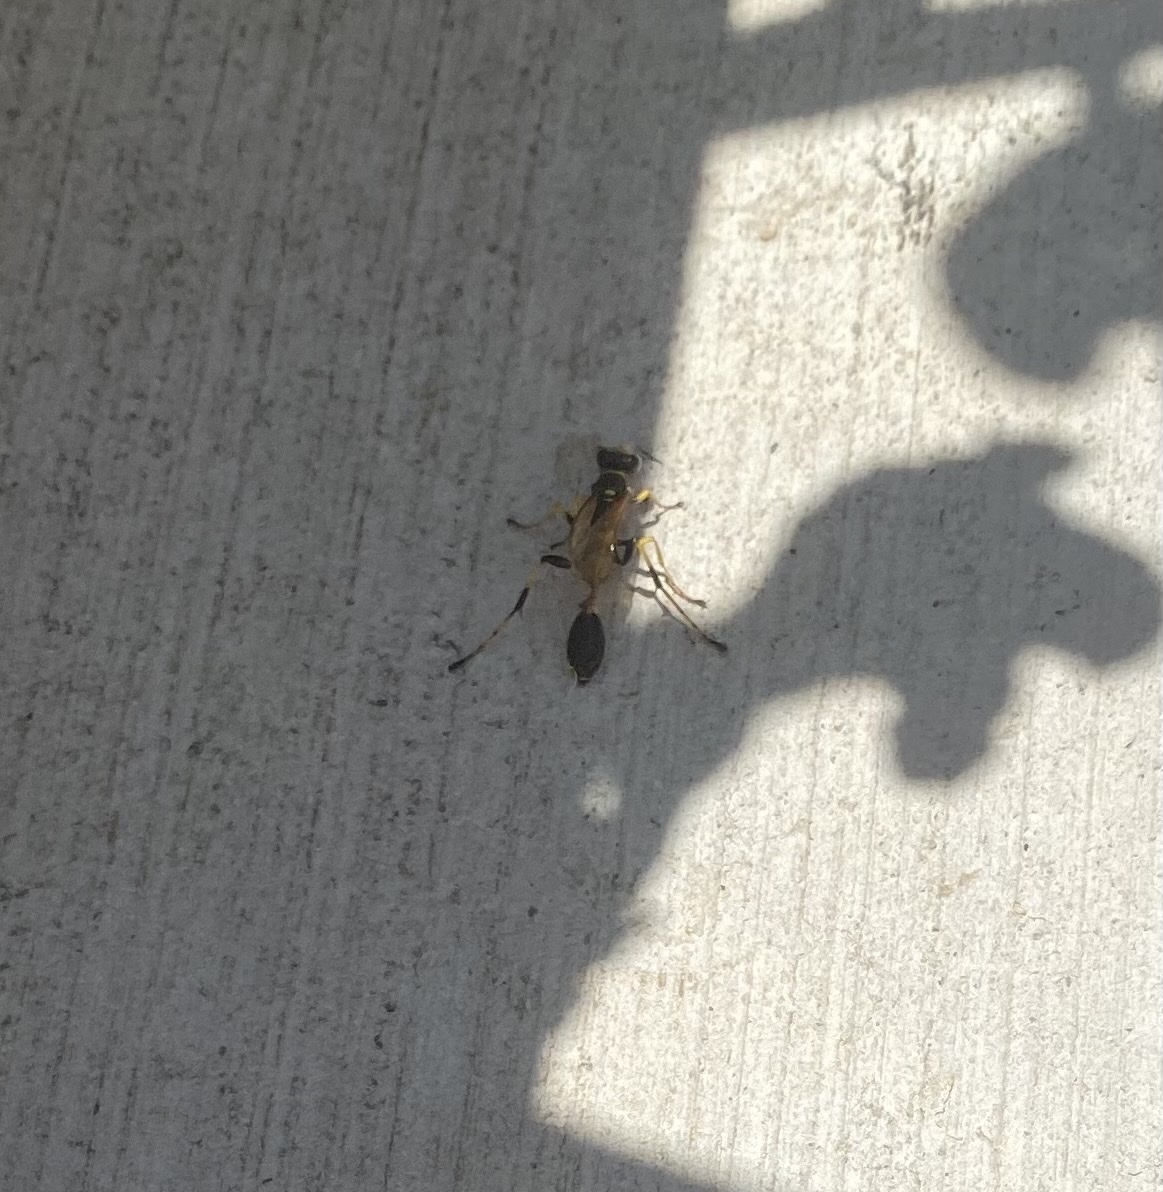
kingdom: Animalia
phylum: Arthropoda
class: Insecta
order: Hymenoptera
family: Sphecidae
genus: Sceliphron
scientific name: Sceliphron caementarium
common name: Mud dauber
